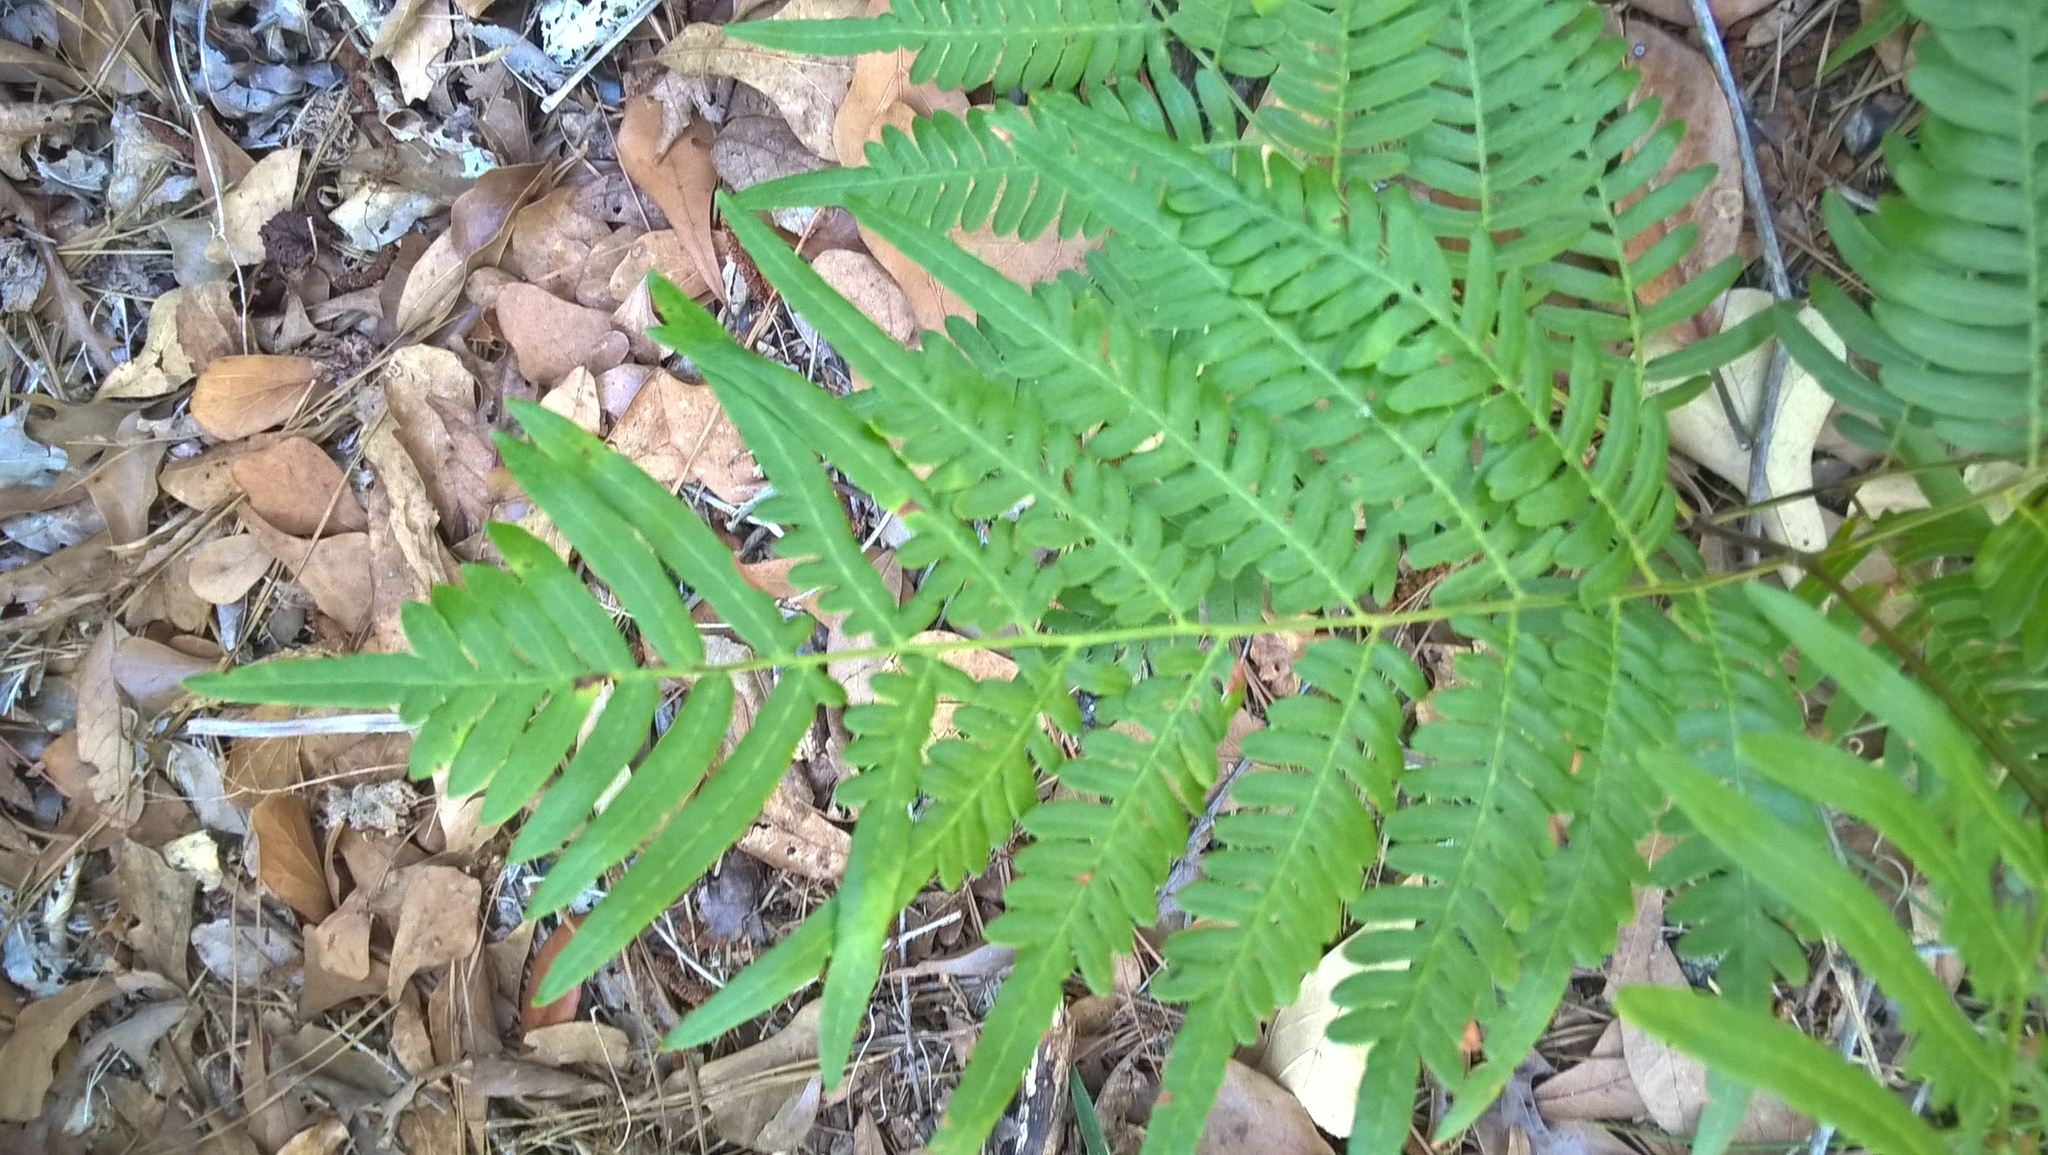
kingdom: Plantae
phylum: Tracheophyta
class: Polypodiopsida
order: Polypodiales
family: Dennstaedtiaceae
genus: Pteridium
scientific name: Pteridium aquilinum
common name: Bracken
